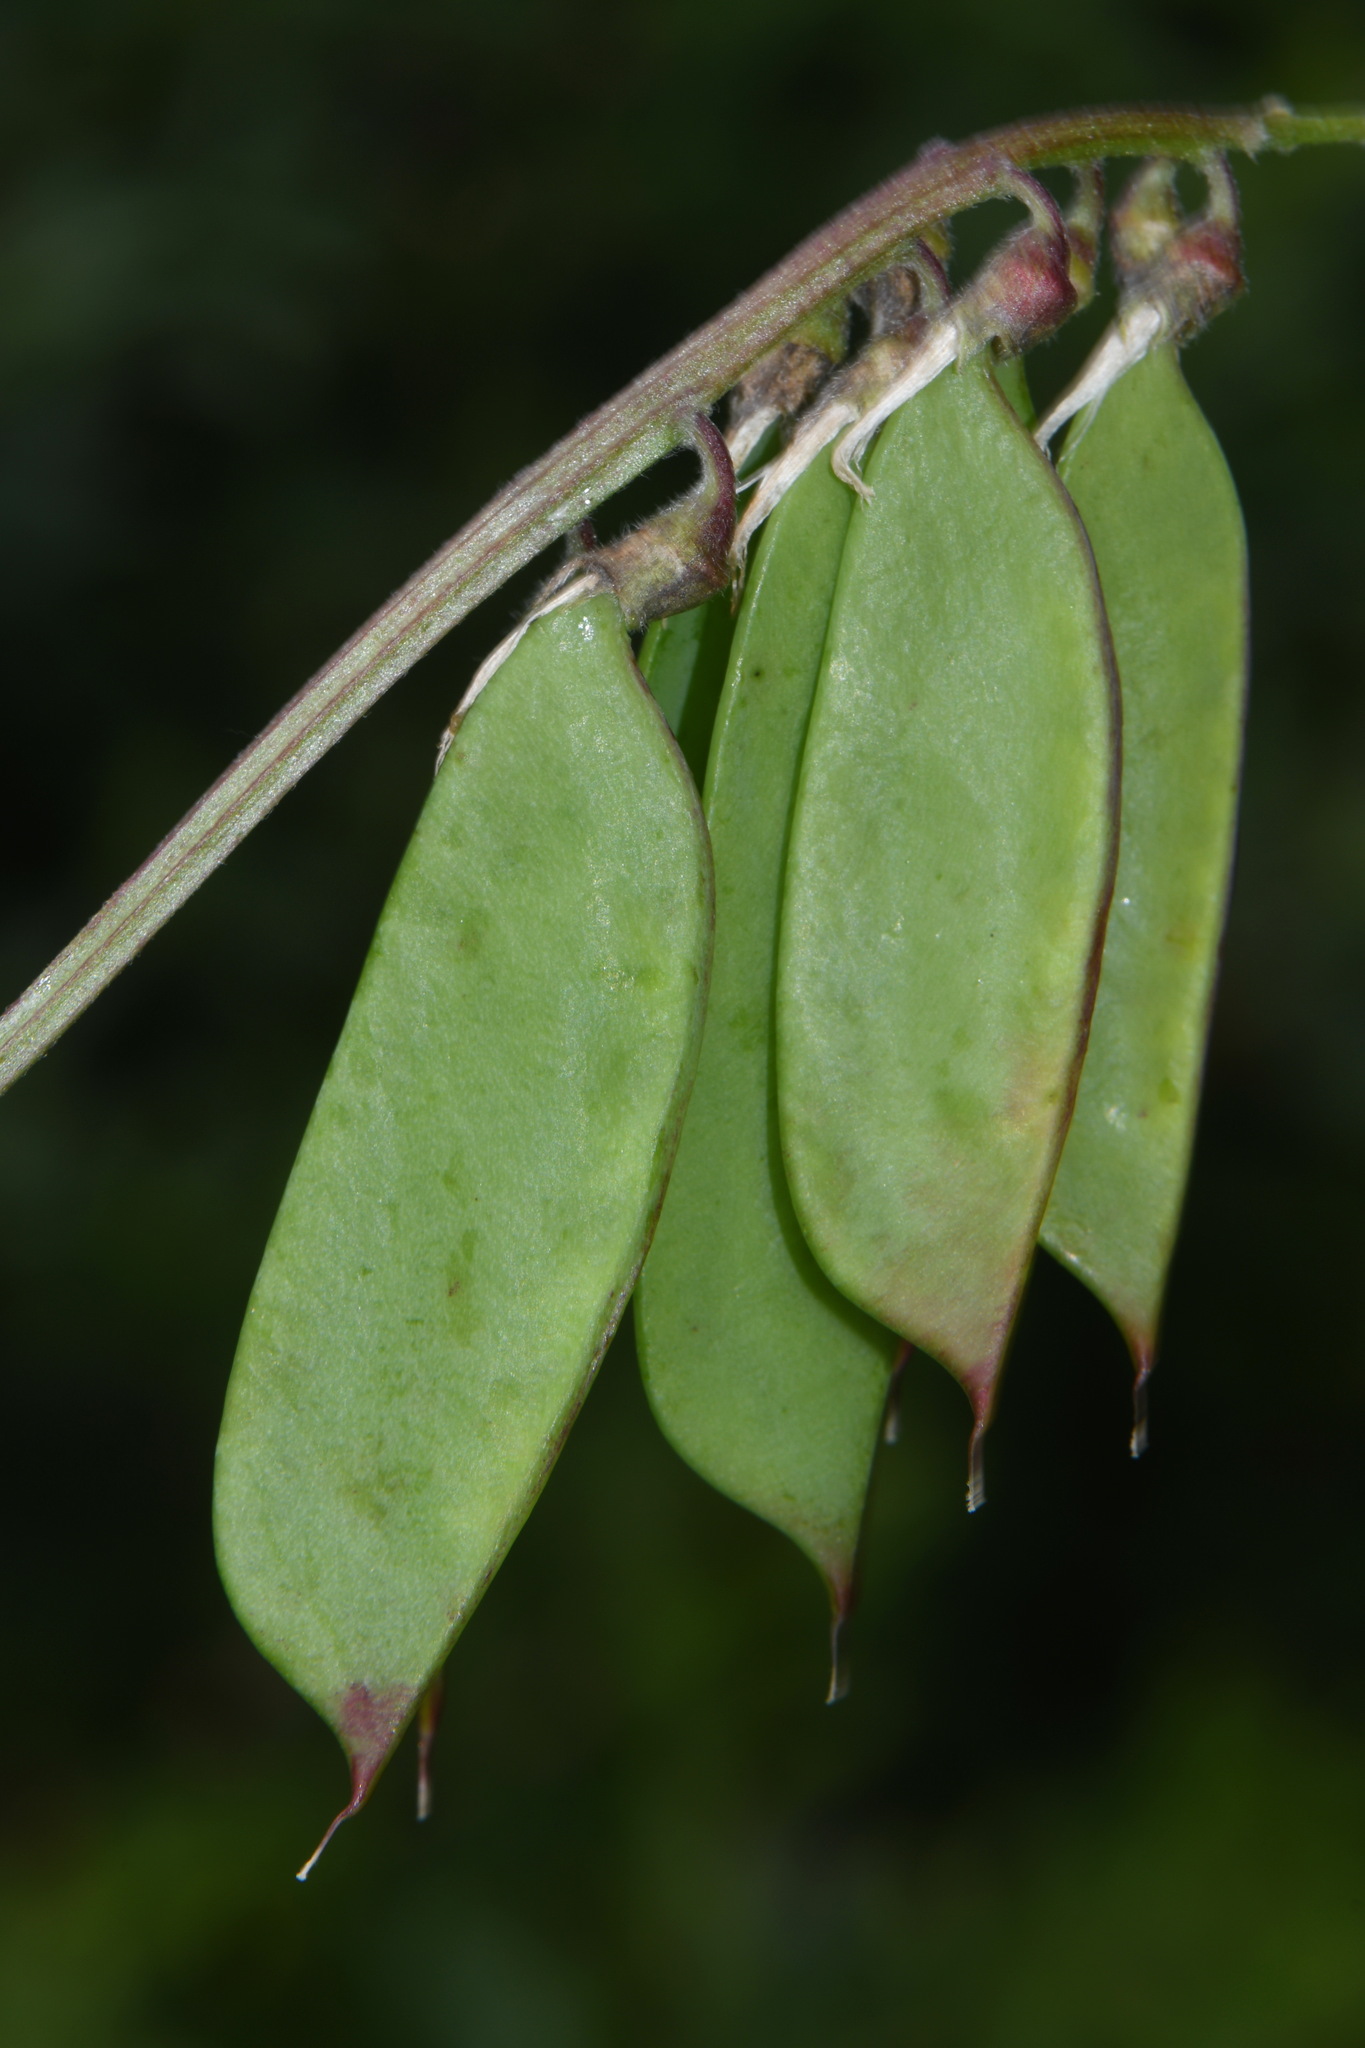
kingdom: Plantae
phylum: Tracheophyta
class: Magnoliopsida
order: Fabales
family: Fabaceae
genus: Vicia
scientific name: Vicia
